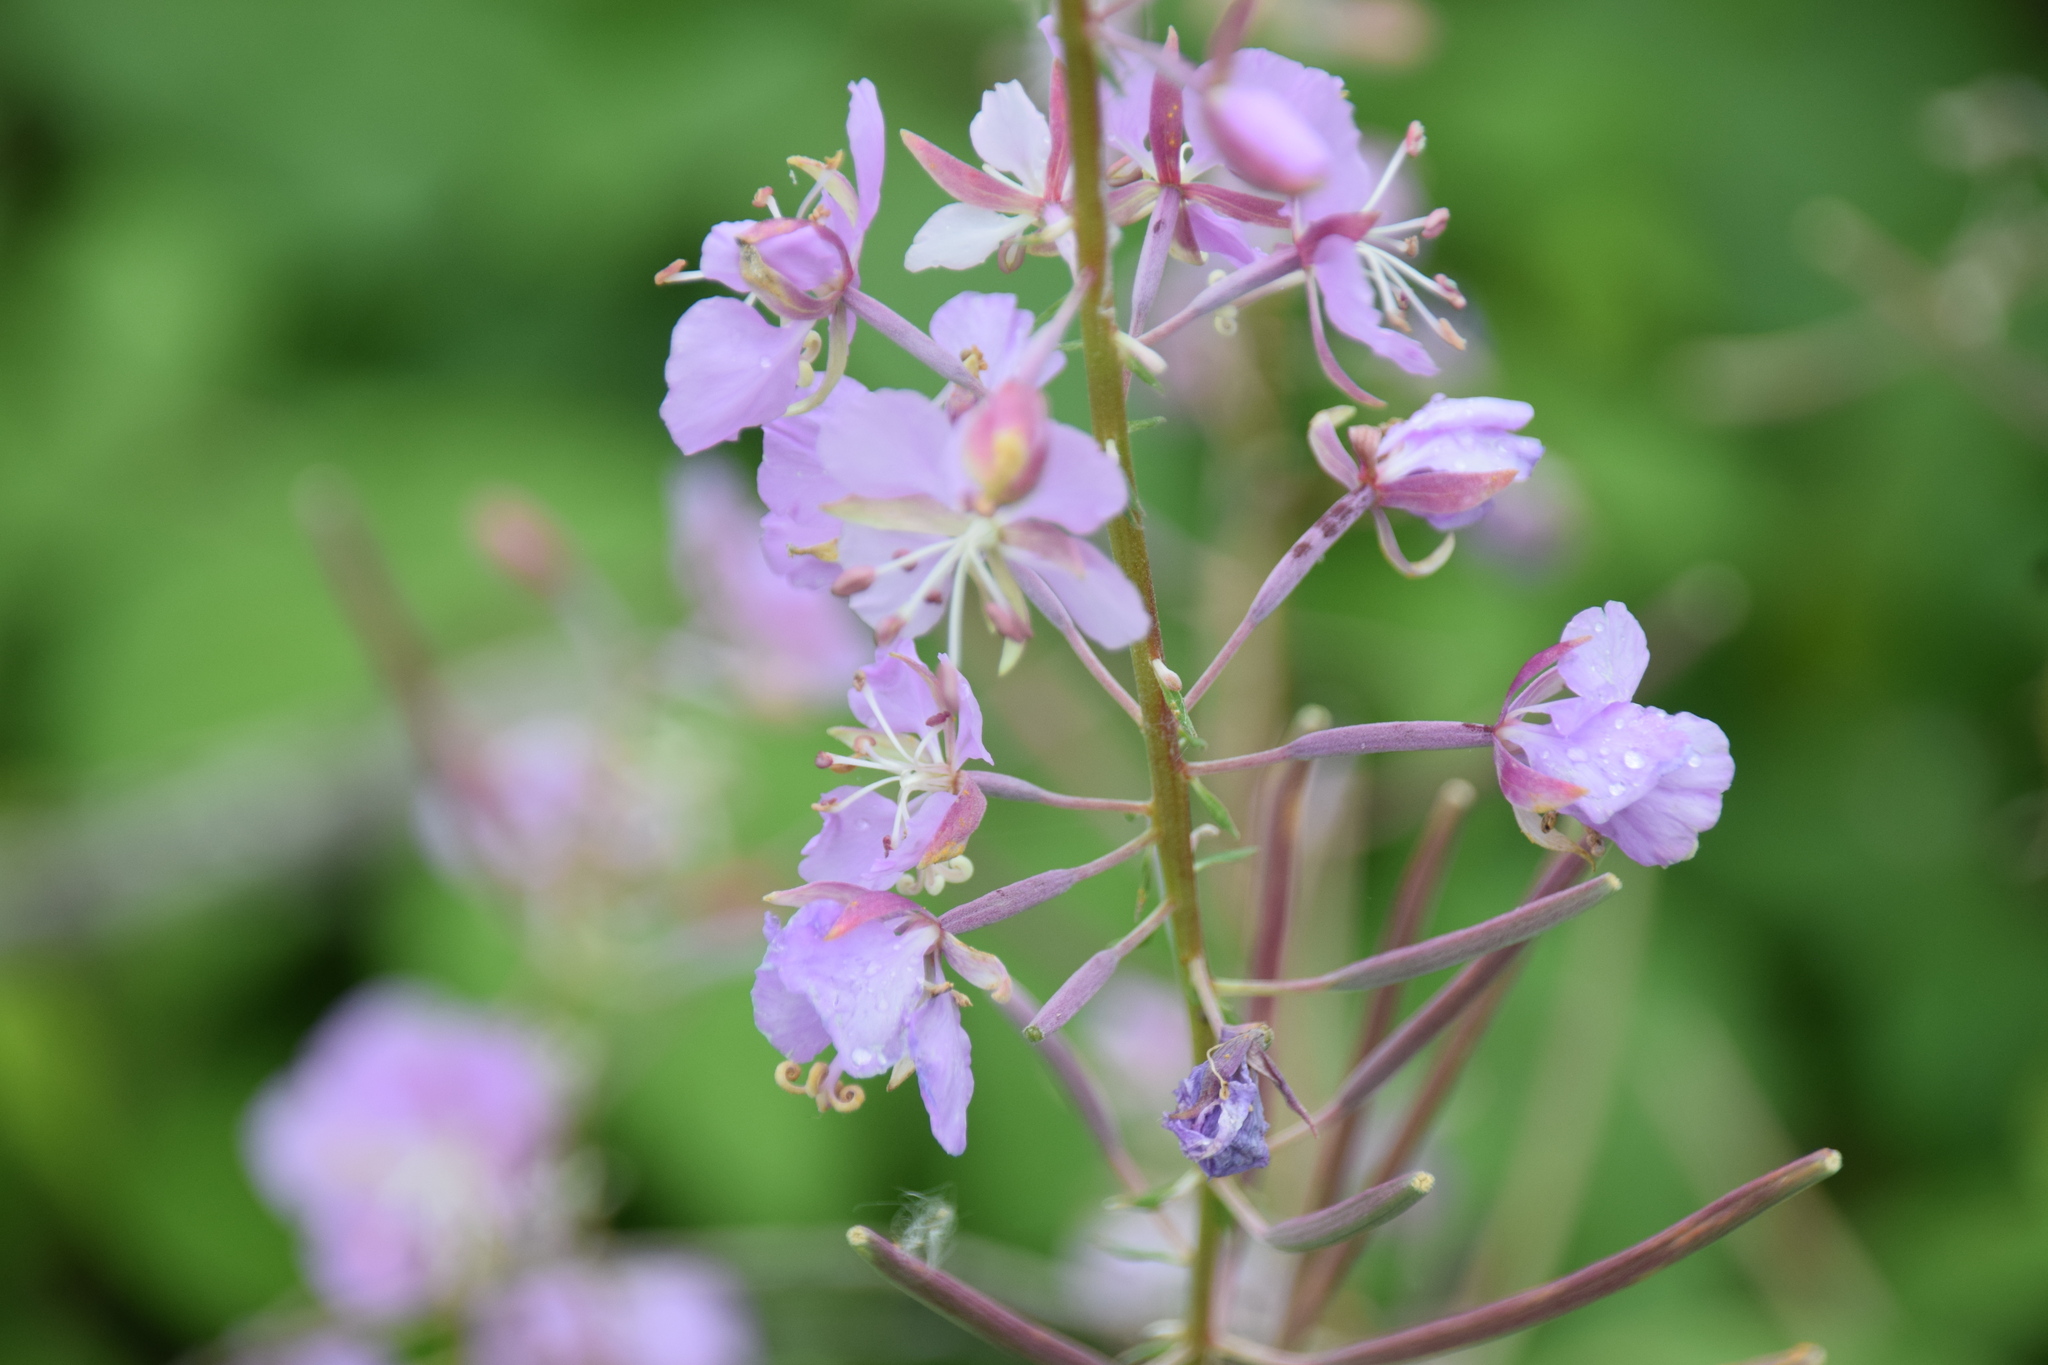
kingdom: Plantae
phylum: Tracheophyta
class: Magnoliopsida
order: Myrtales
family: Onagraceae
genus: Chamaenerion
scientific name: Chamaenerion angustifolium
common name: Fireweed
